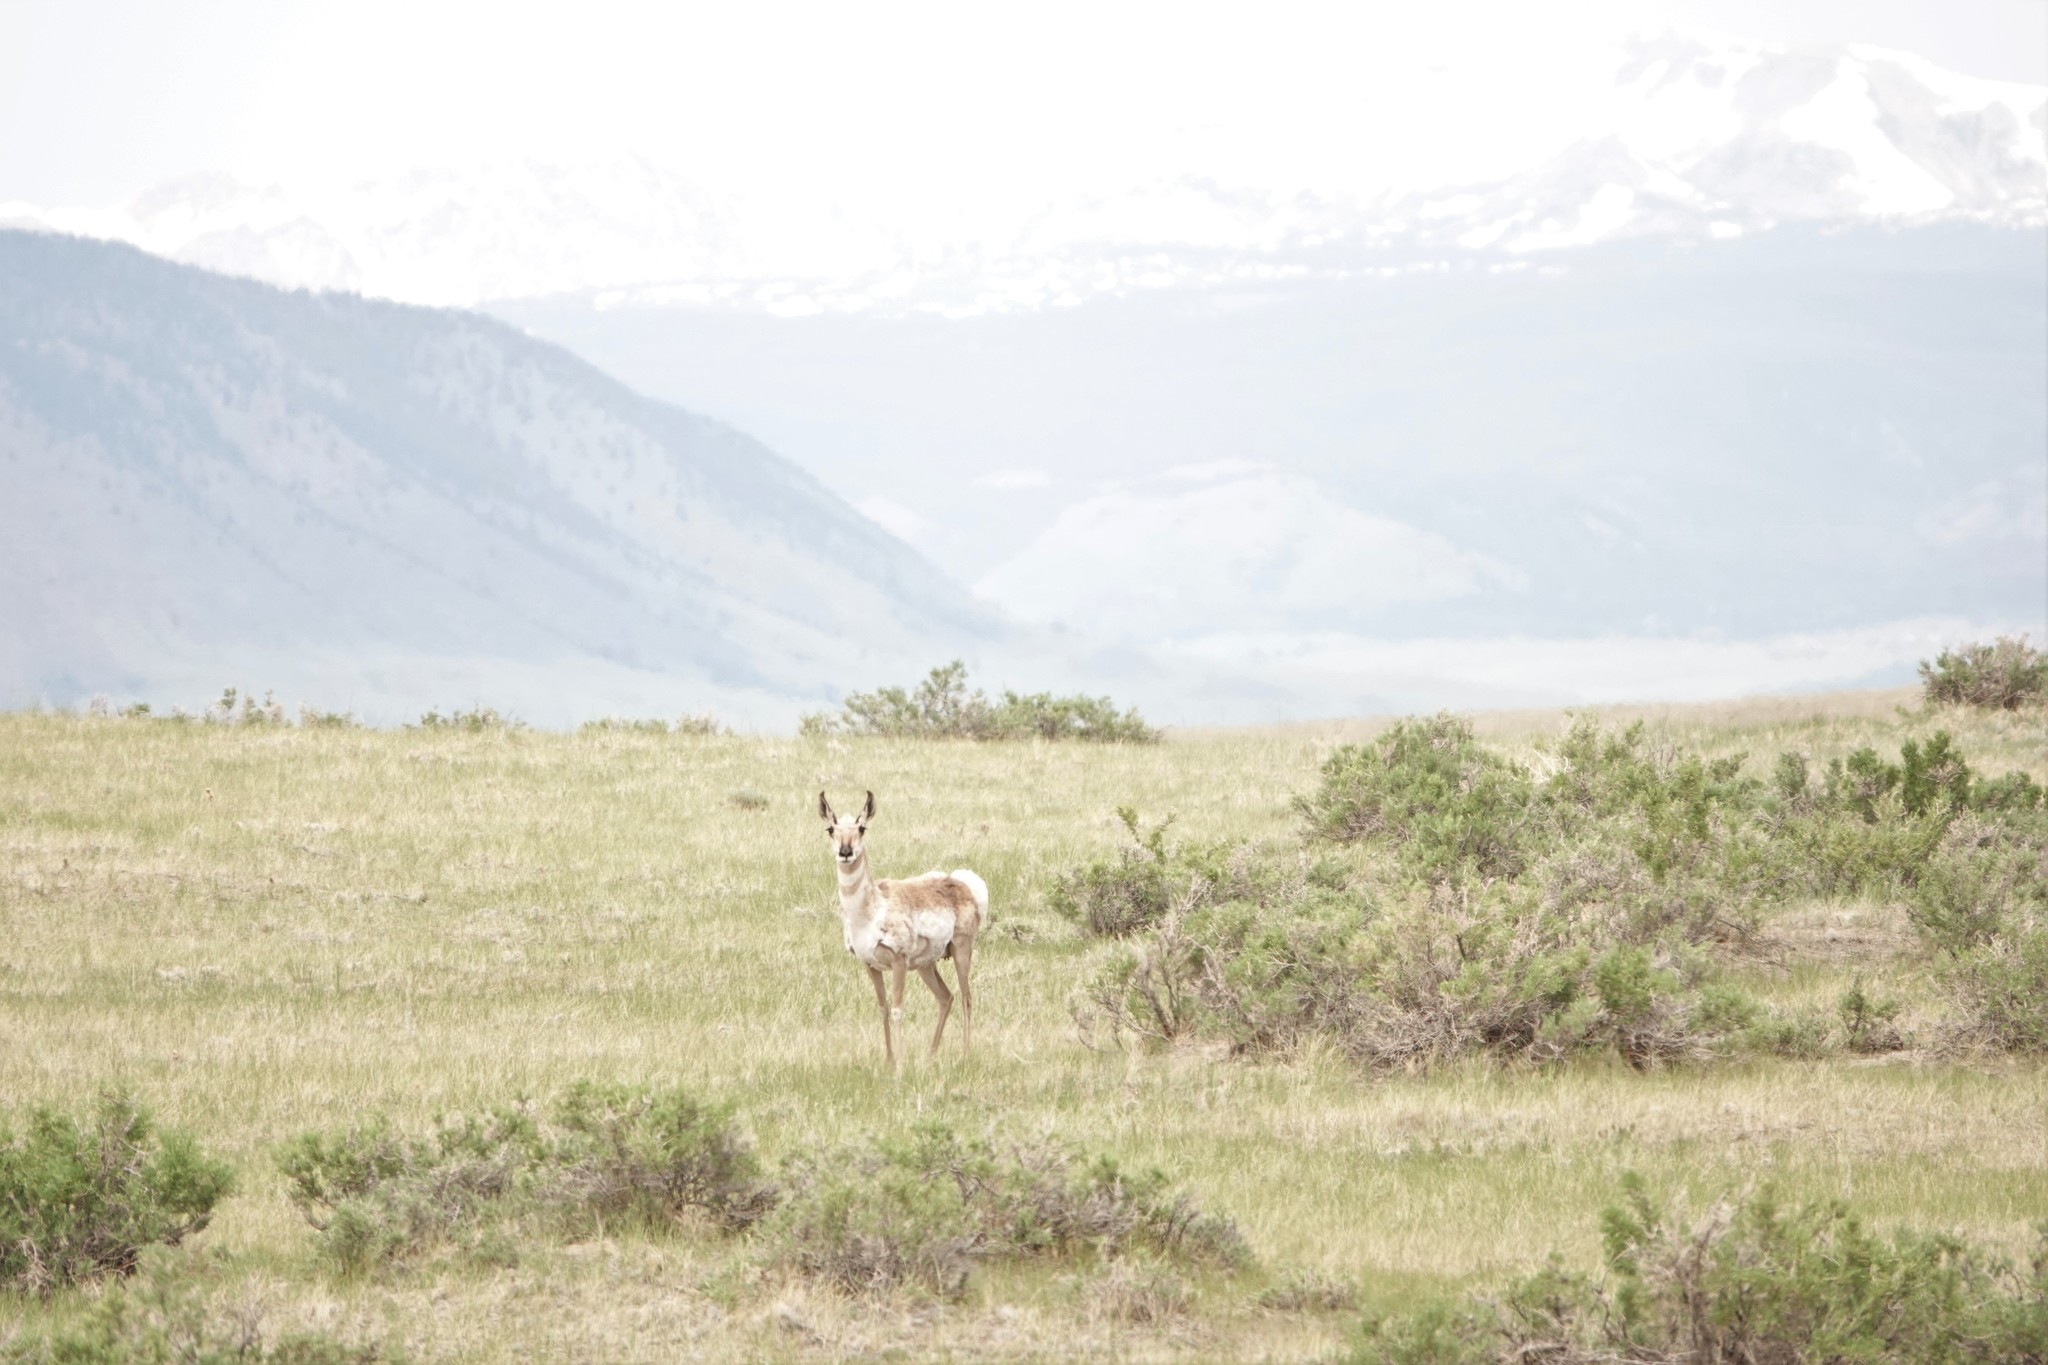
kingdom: Animalia
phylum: Chordata
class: Mammalia
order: Artiodactyla
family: Antilocapridae
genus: Antilocapra
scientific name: Antilocapra americana
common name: Pronghorn
